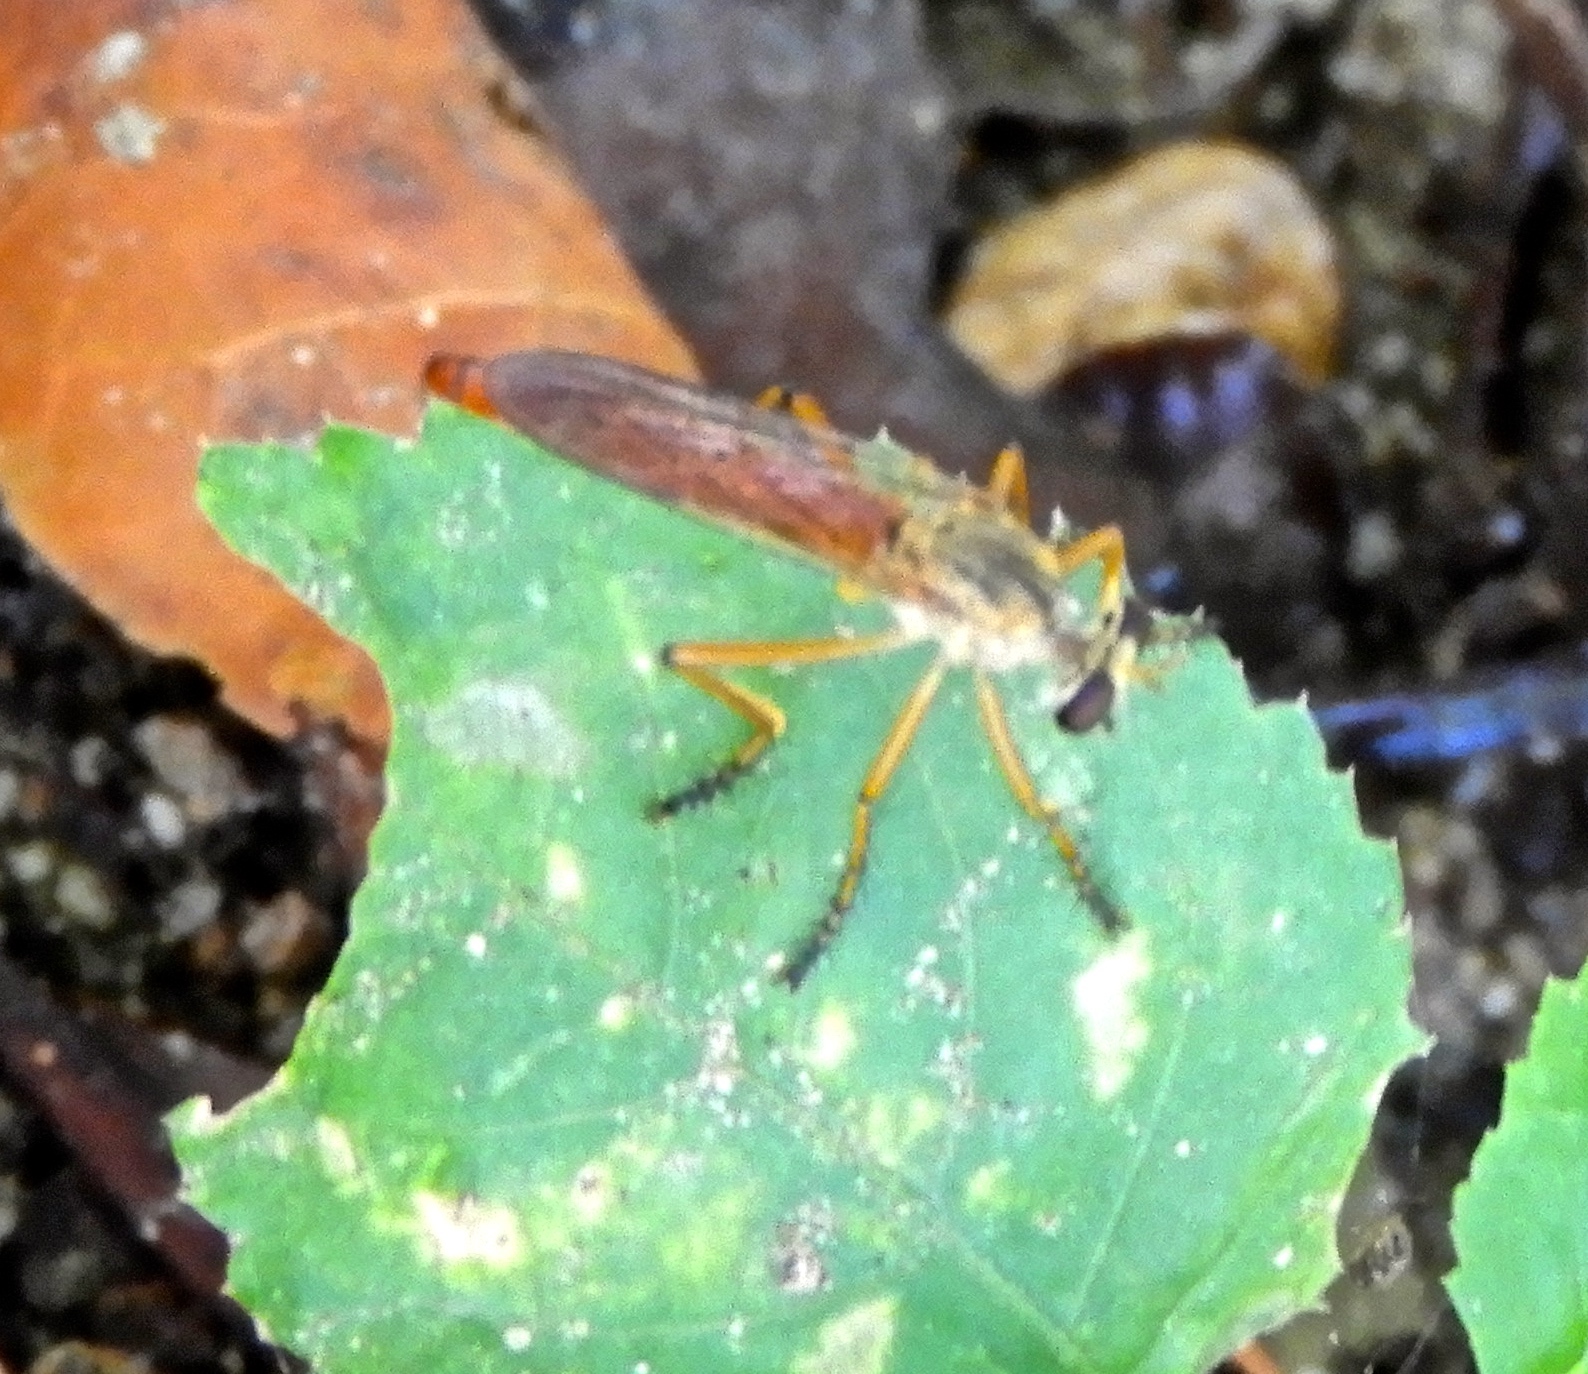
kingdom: Animalia
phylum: Arthropoda
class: Insecta
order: Diptera
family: Asilidae
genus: Diogmites
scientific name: Diogmites
